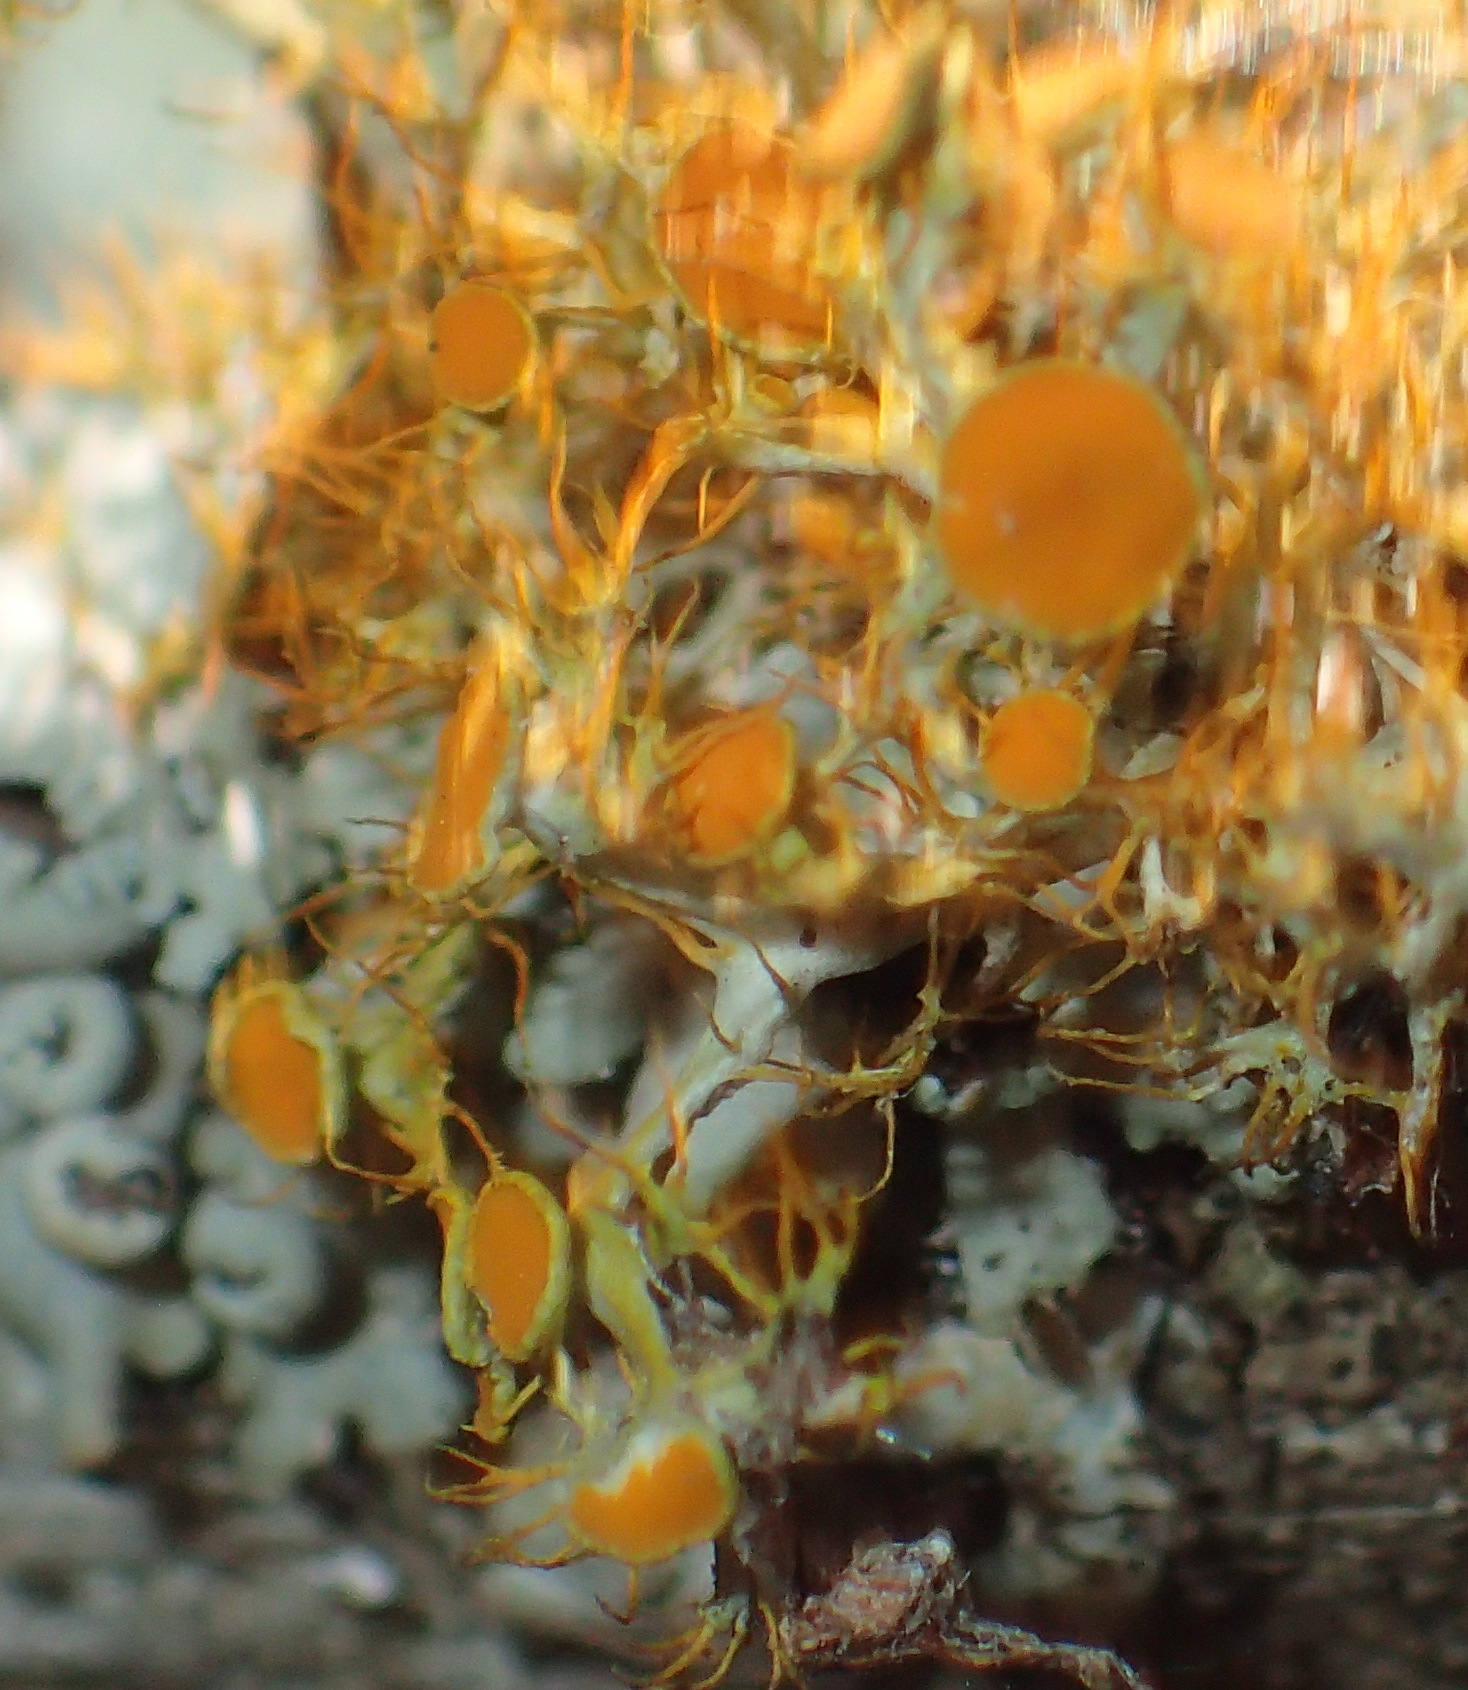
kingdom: Fungi
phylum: Ascomycota
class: Lecanoromycetes
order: Teloschistales
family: Teloschistaceae
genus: Teloschistes
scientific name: Teloschistes pulvinaris
